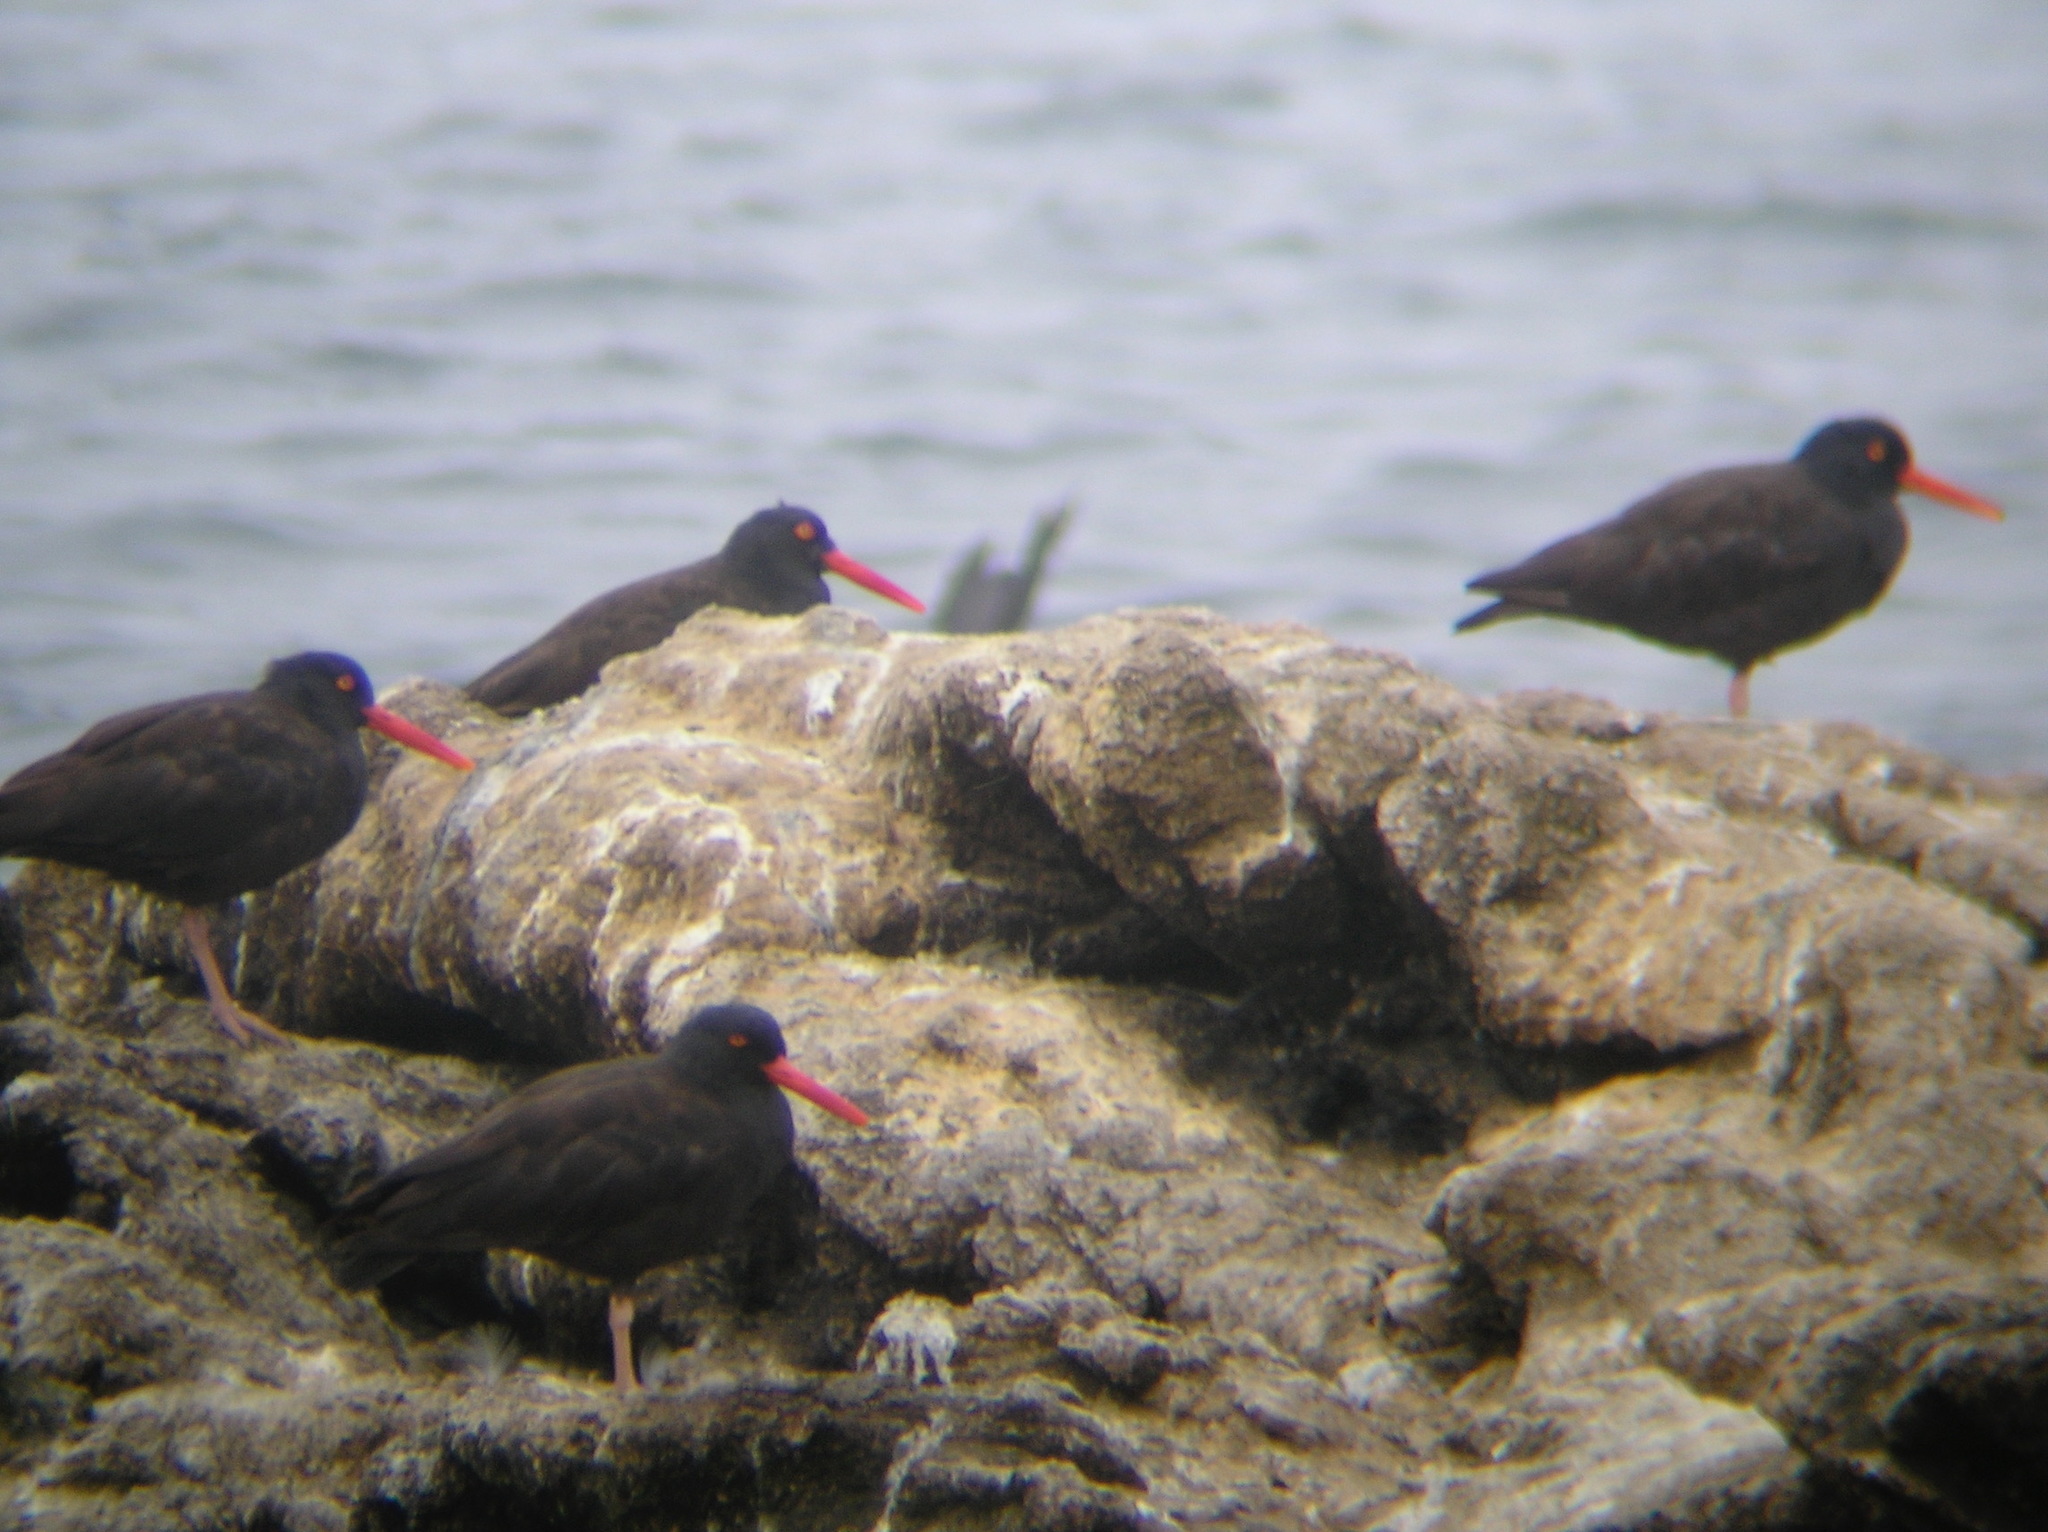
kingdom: Animalia
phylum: Chordata
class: Aves
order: Charadriiformes
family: Haematopodidae
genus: Haematopus
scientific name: Haematopus bachmani
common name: Black oystercatcher
